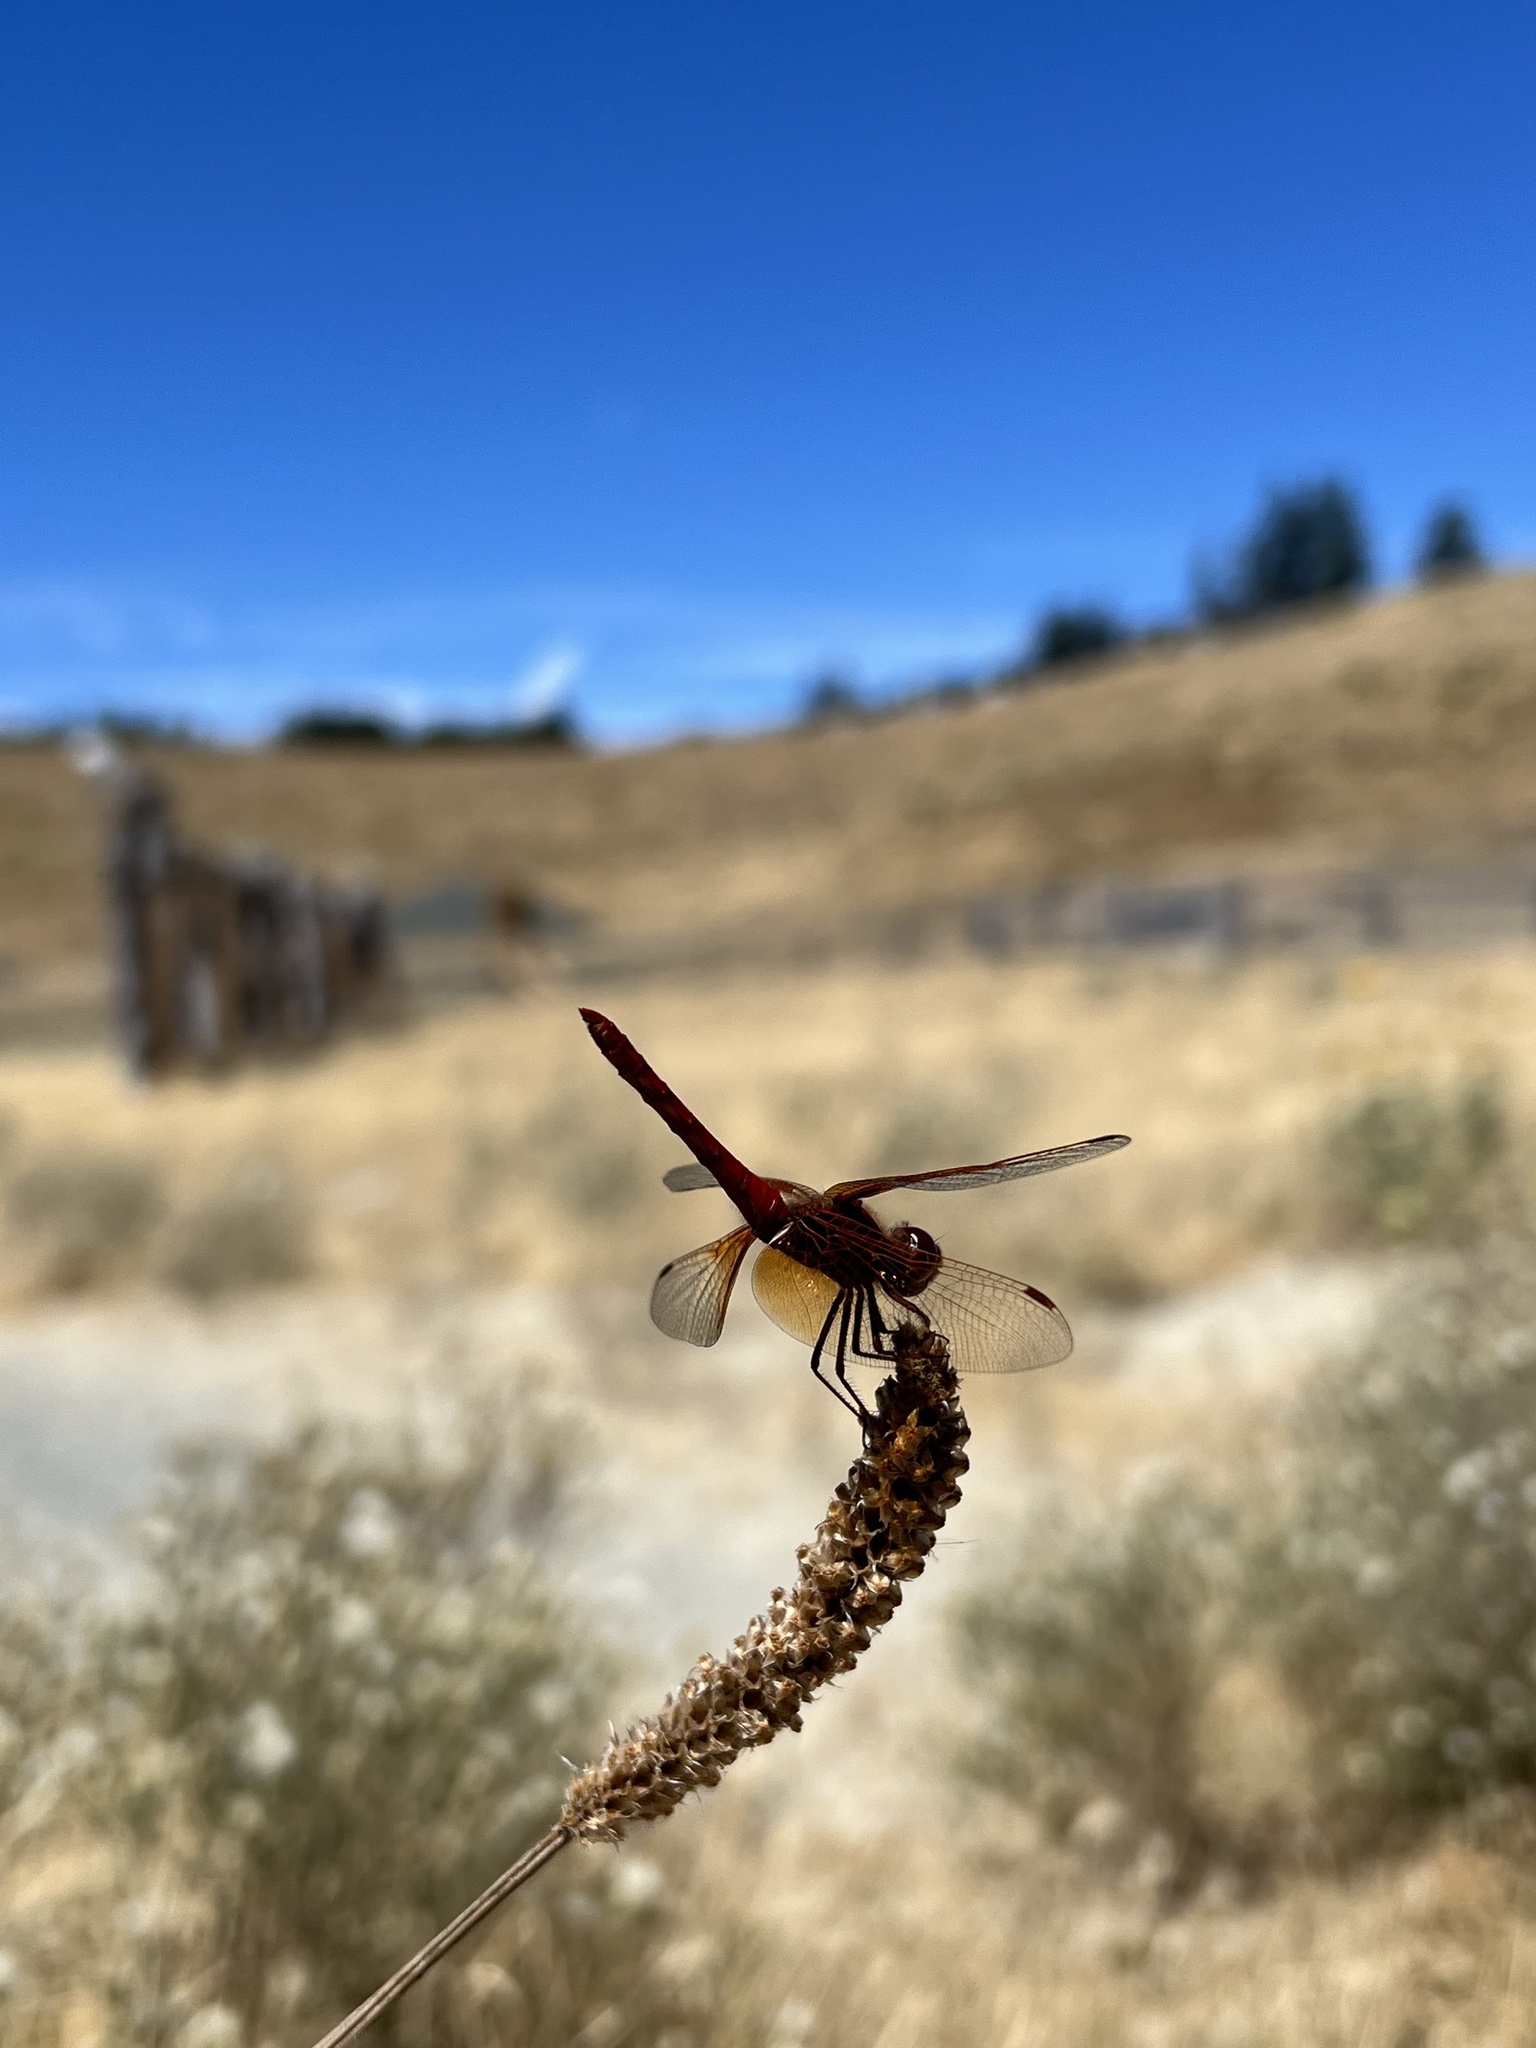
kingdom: Animalia
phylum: Arthropoda
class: Insecta
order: Odonata
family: Libellulidae
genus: Sympetrum
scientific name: Sympetrum illotum
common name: Cardinal meadowhawk
